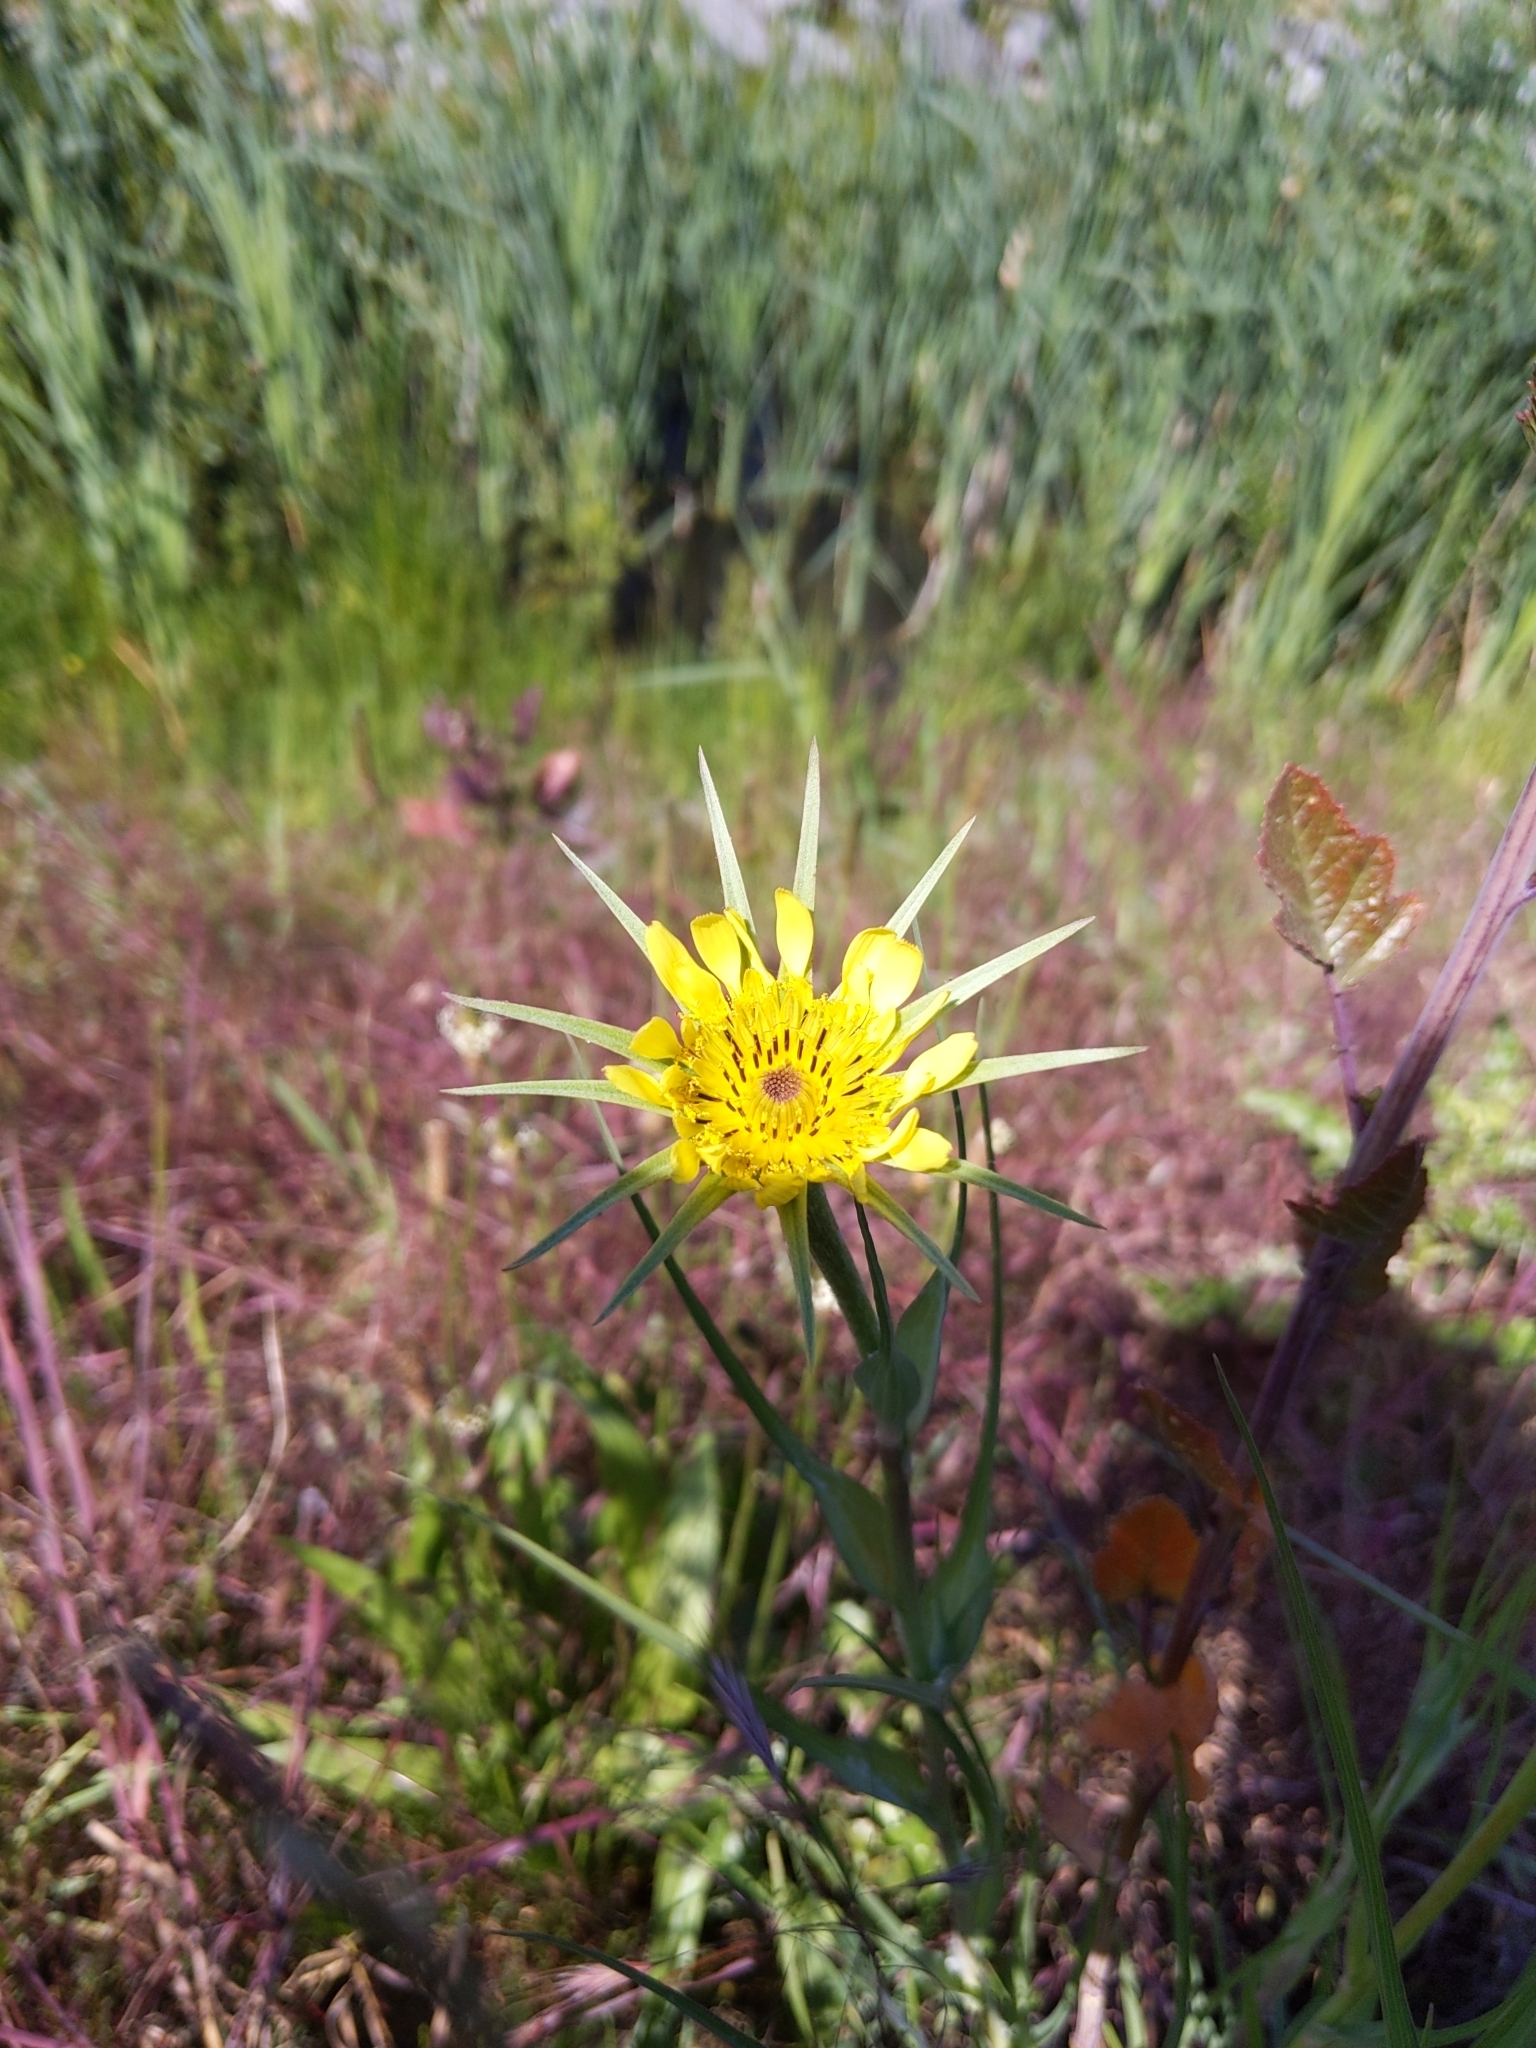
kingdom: Plantae
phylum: Tracheophyta
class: Magnoliopsida
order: Asterales
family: Asteraceae
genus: Tragopogon
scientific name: Tragopogon dubius
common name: Yellow salsify
